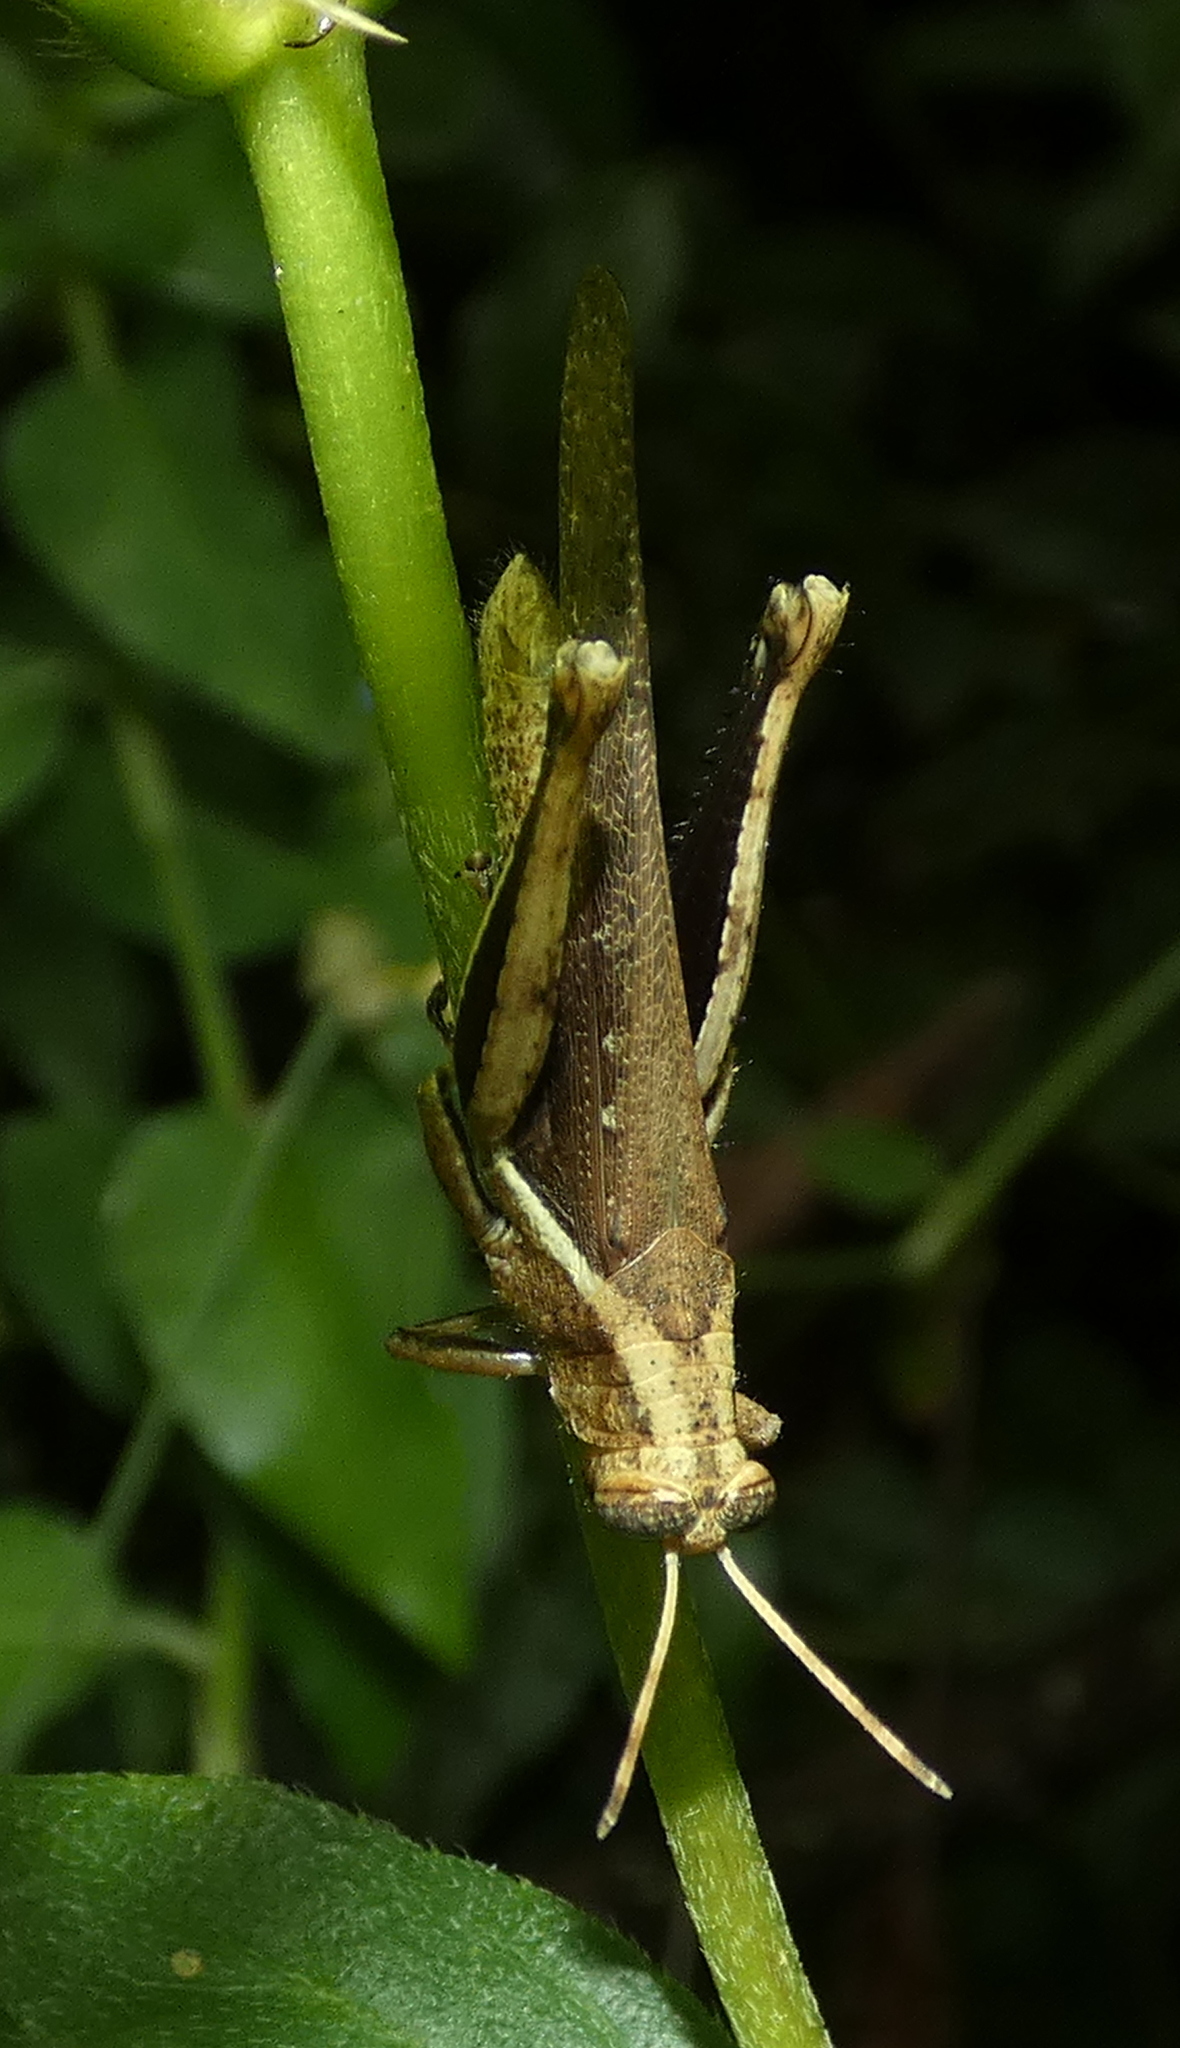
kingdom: Animalia
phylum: Arthropoda
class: Insecta
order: Orthoptera
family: Acrididae
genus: Abracris
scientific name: Abracris flavolineata
